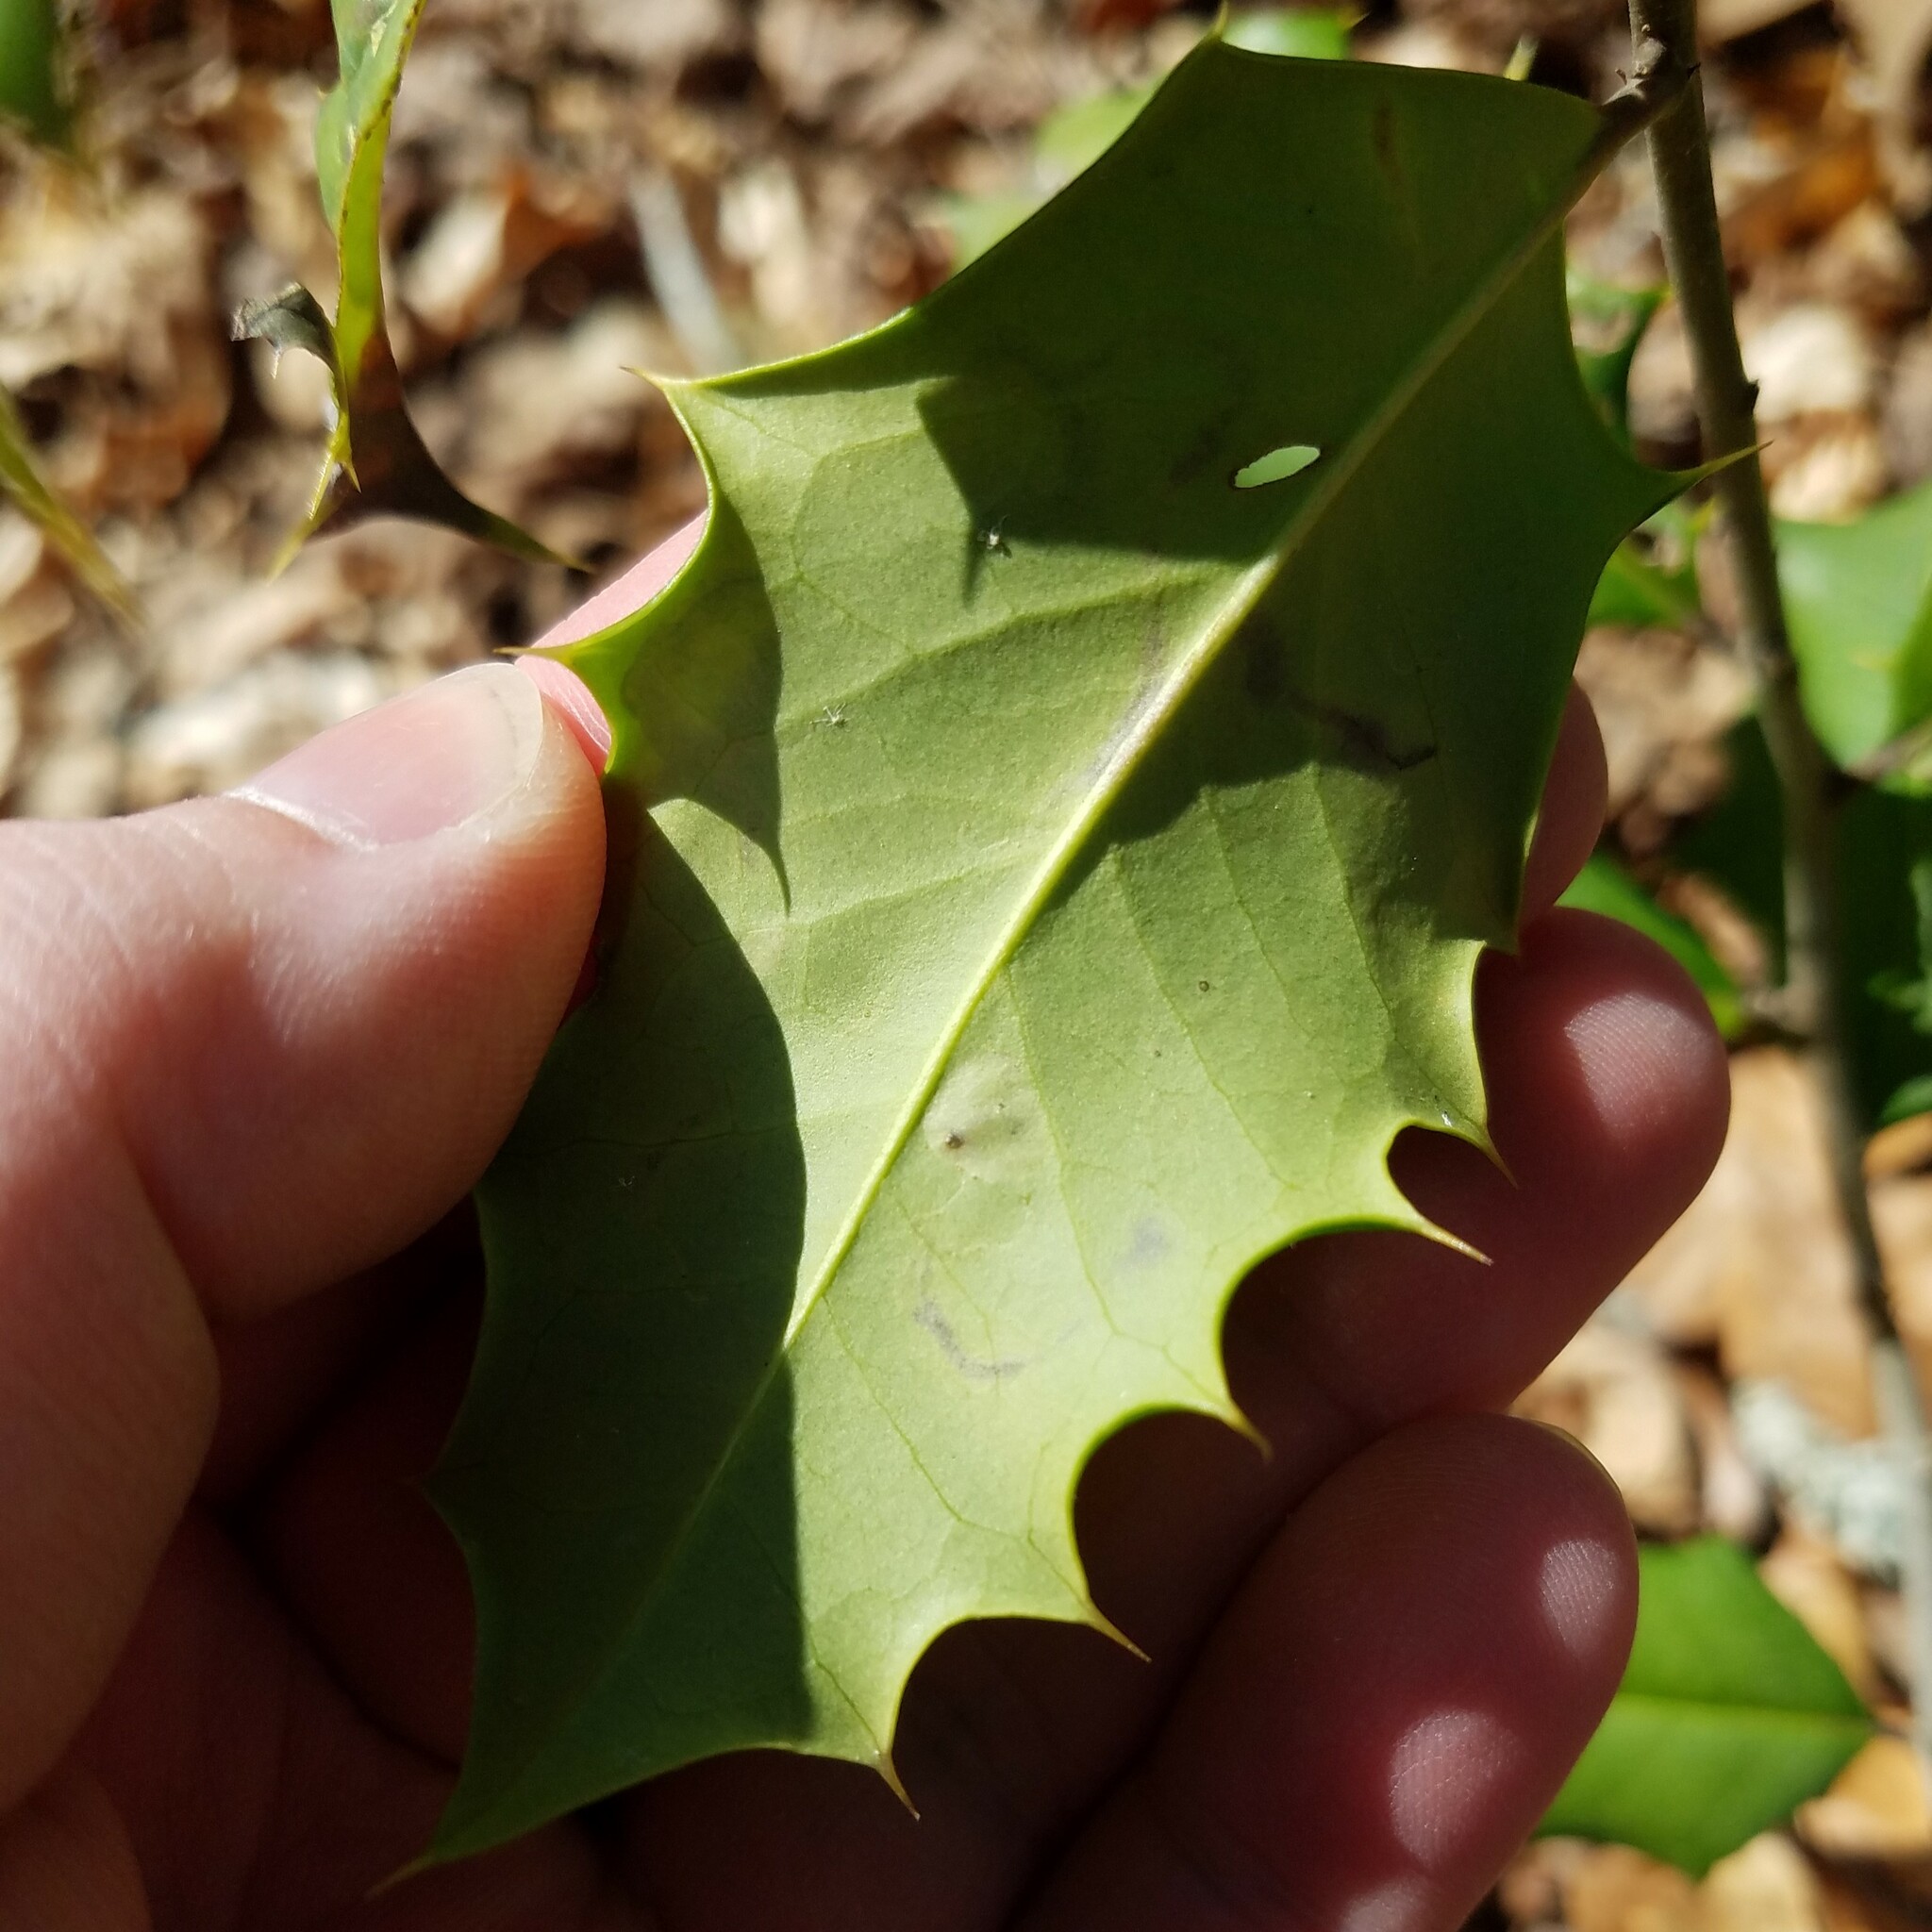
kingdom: Animalia
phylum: Arthropoda
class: Insecta
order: Diptera
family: Agromyzidae
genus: Phytomyza
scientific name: Phytomyza ilicicola
